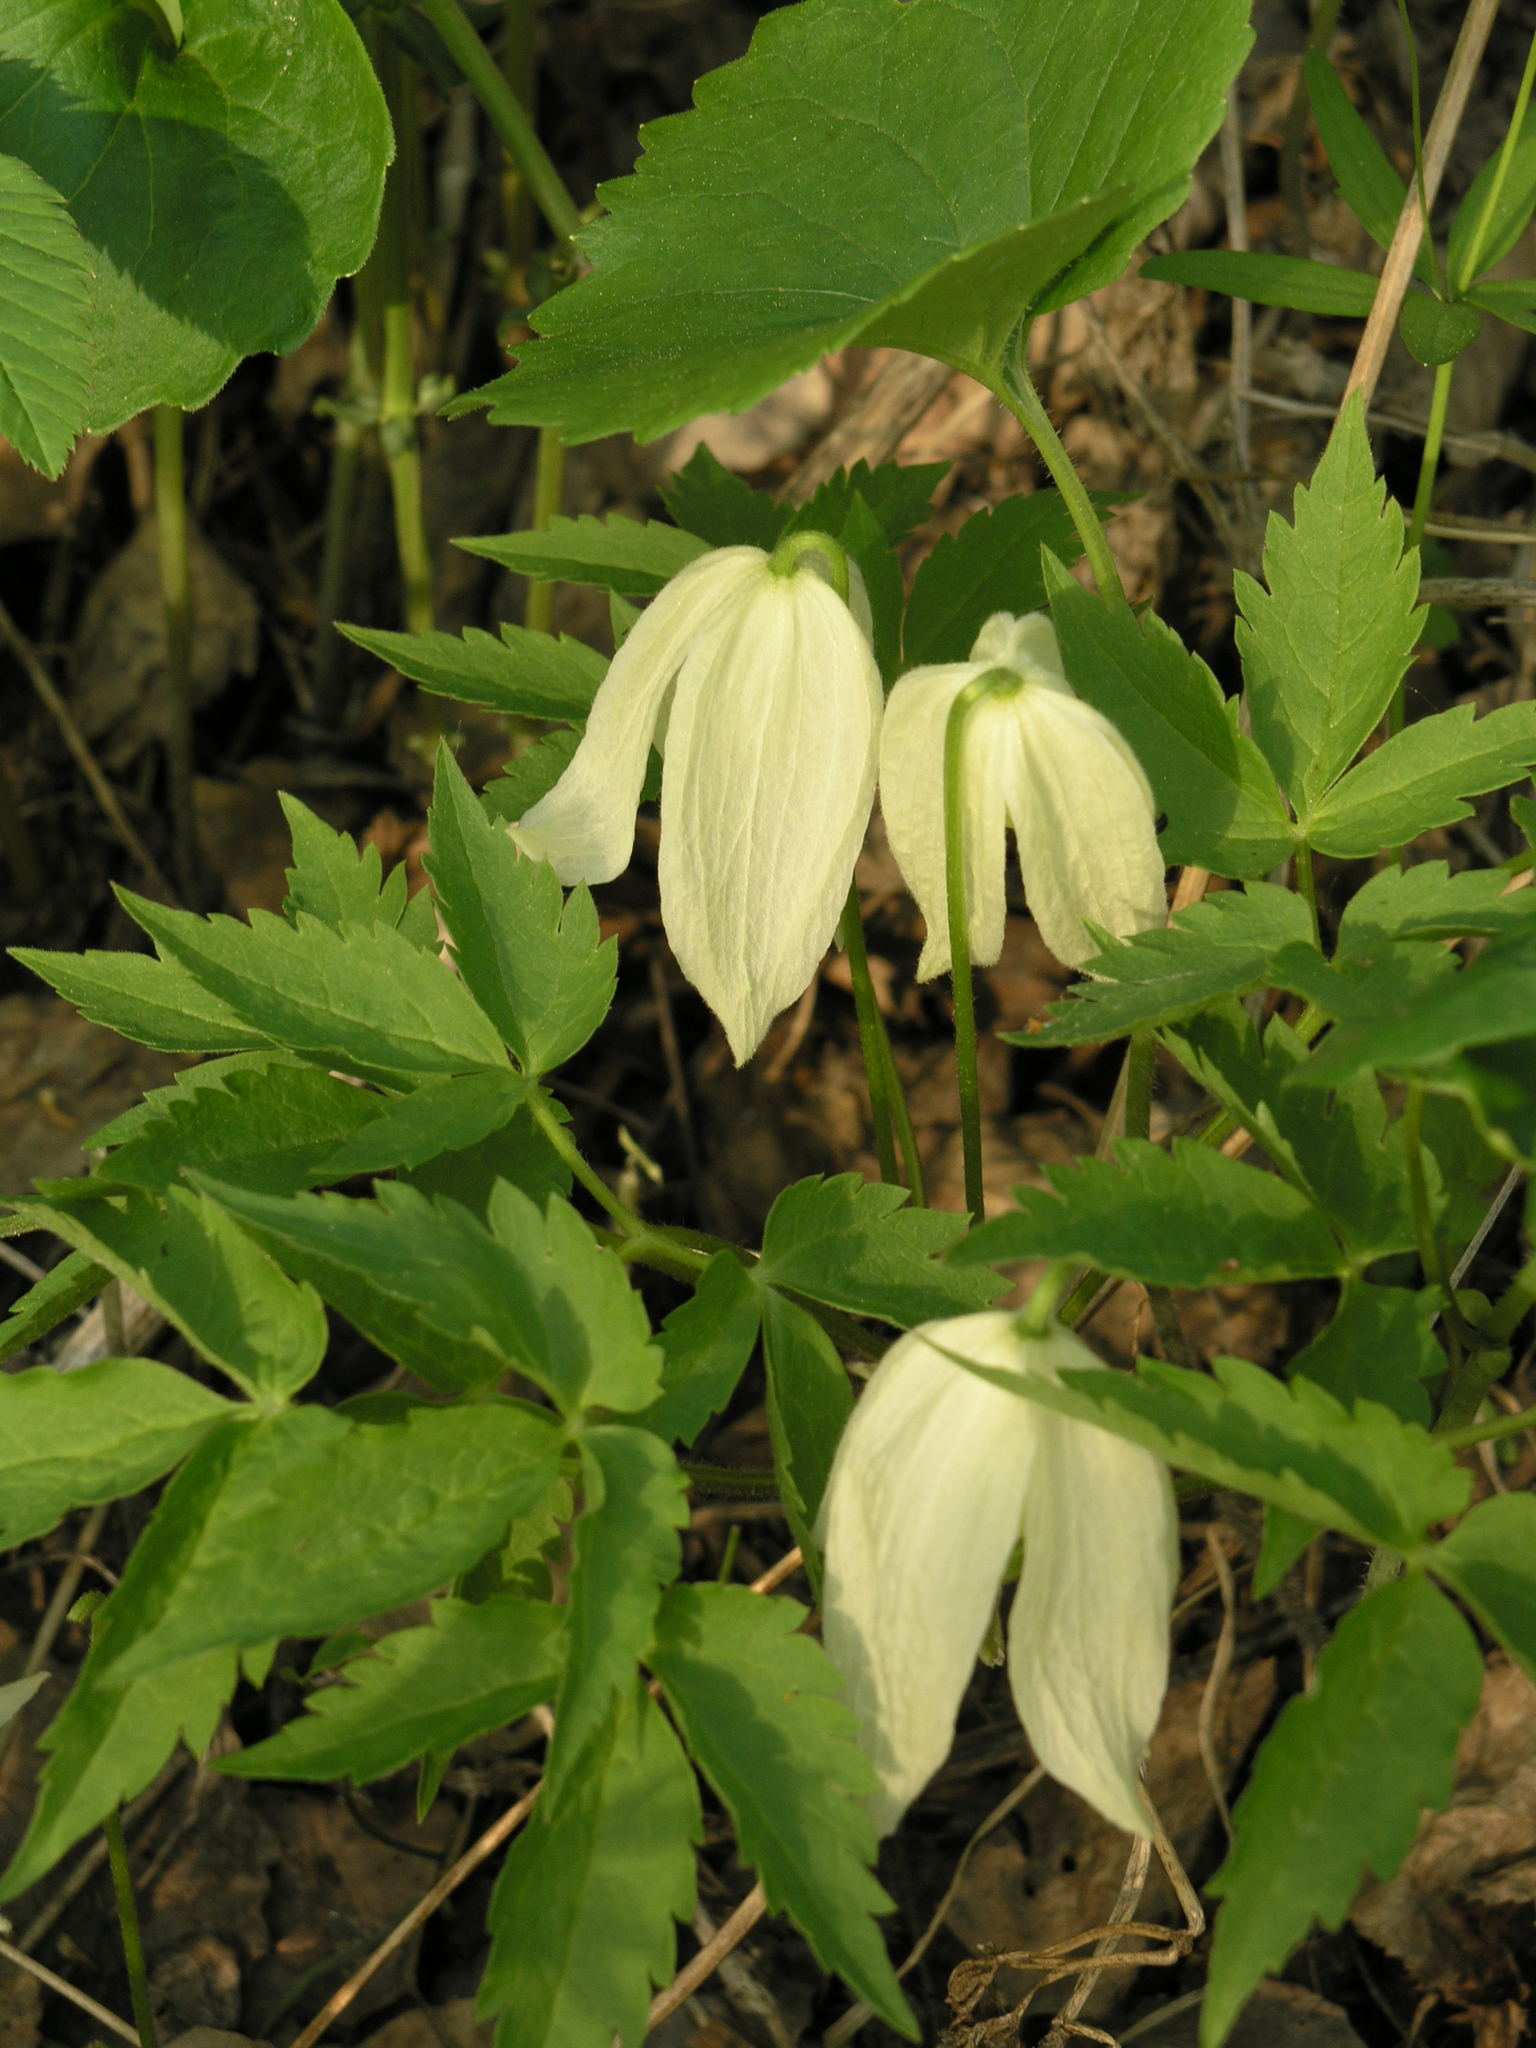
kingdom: Plantae
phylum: Tracheophyta
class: Magnoliopsida
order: Ranunculales
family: Ranunculaceae
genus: Clematis
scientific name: Clematis sibirica
